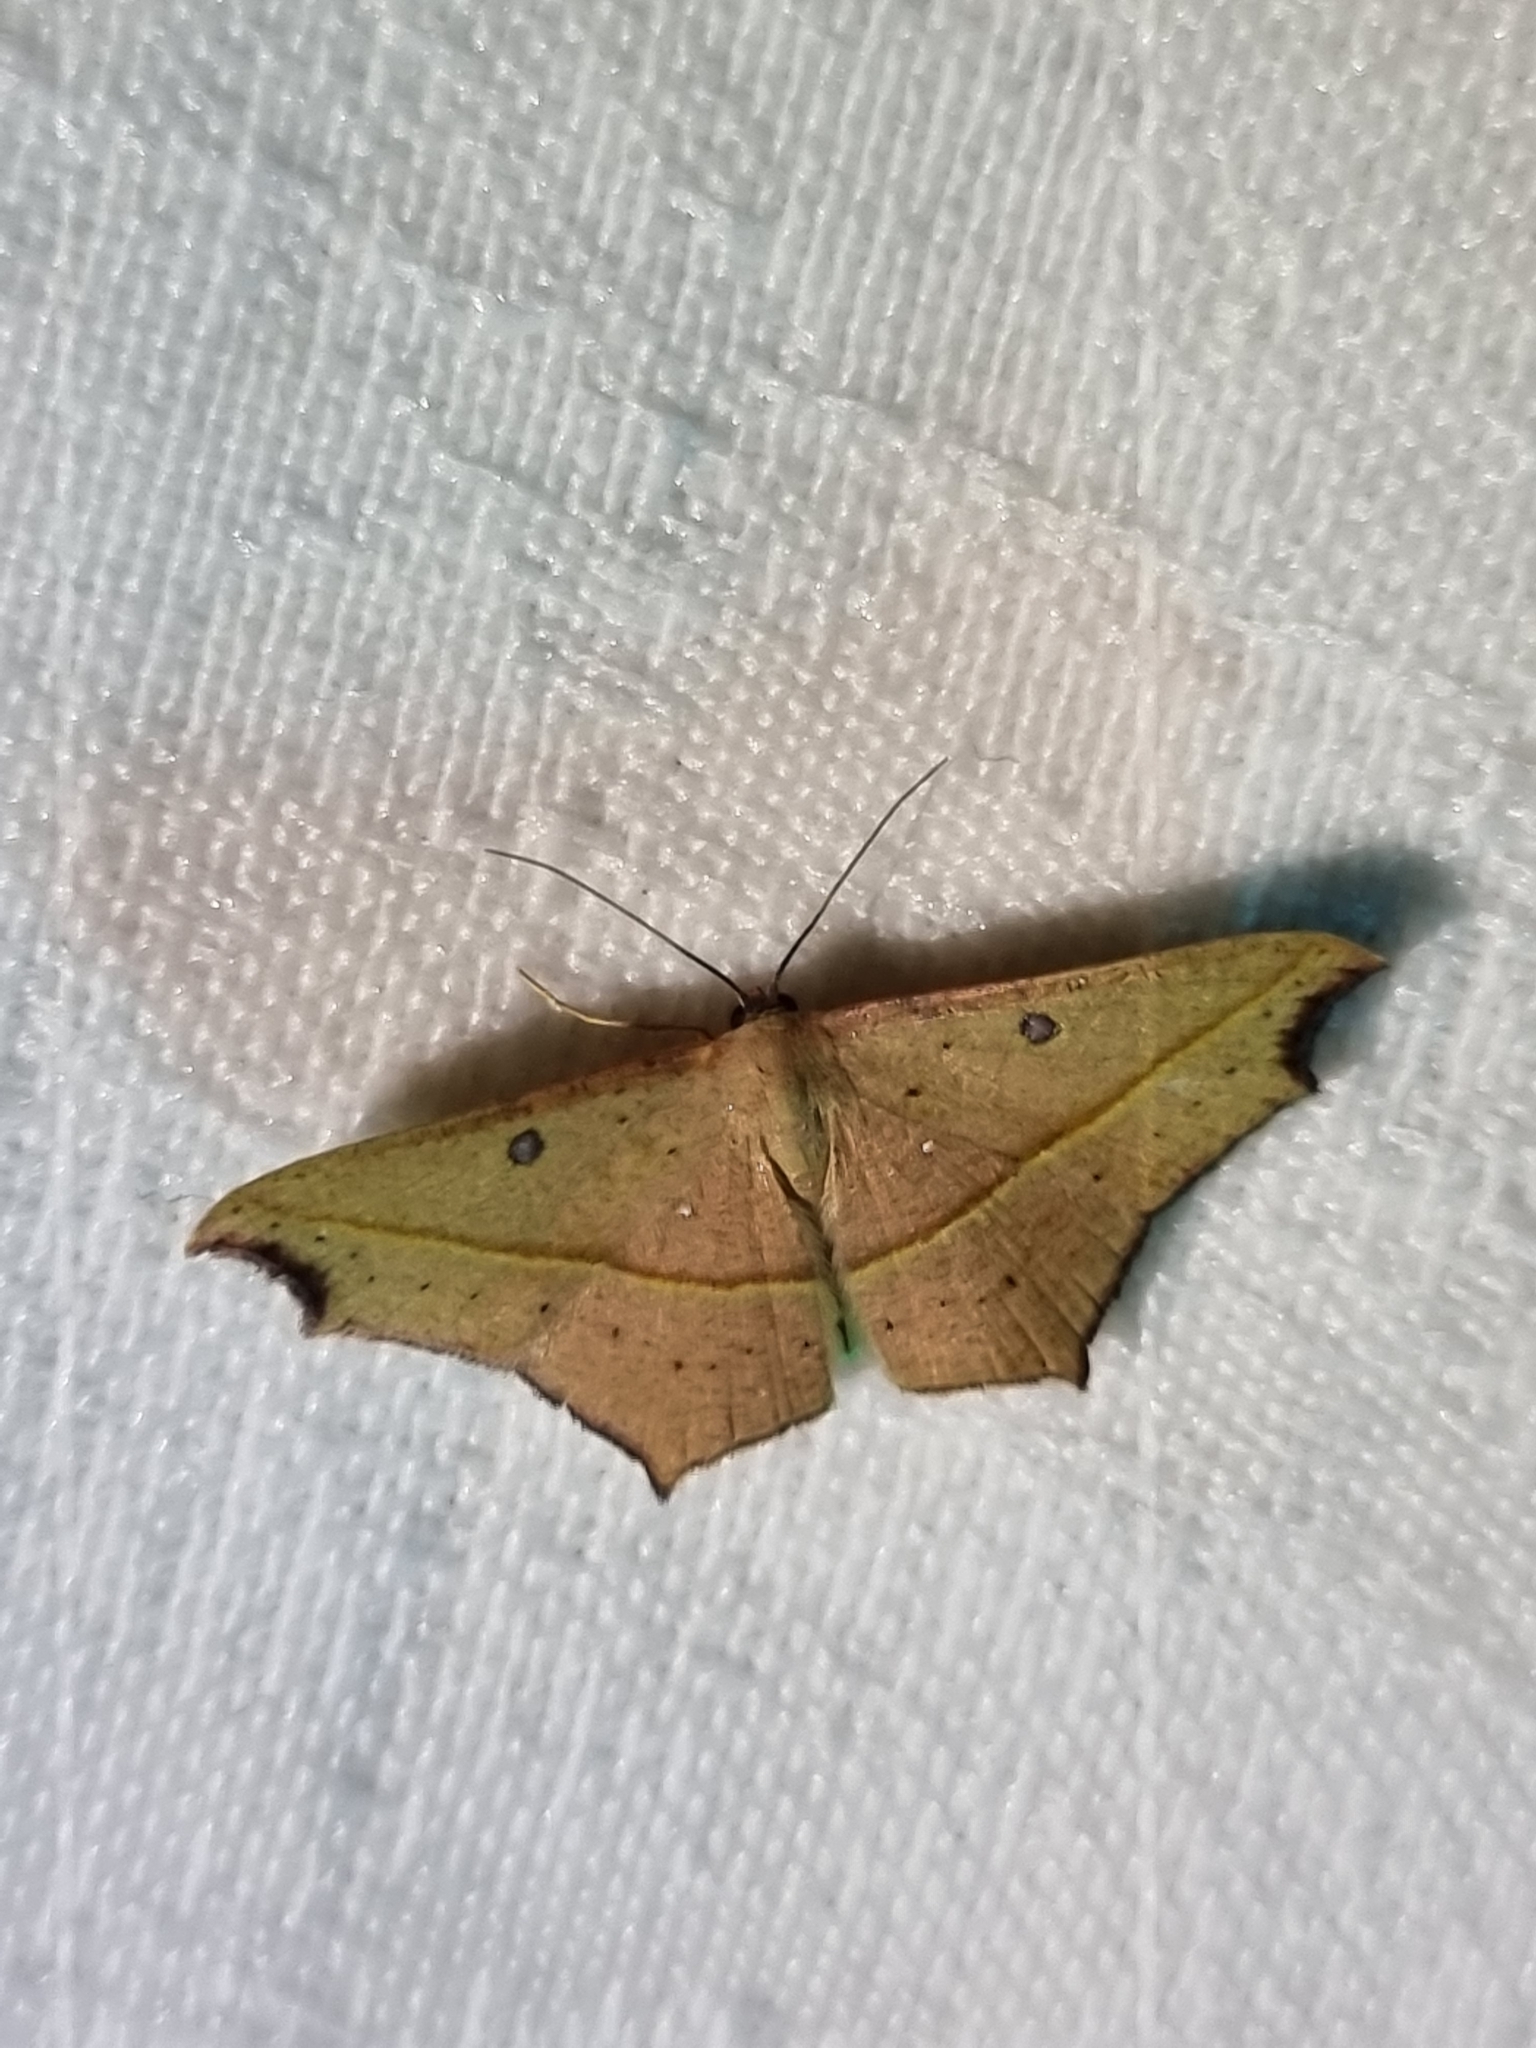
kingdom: Animalia
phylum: Arthropoda
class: Insecta
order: Lepidoptera
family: Geometridae
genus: Traminda
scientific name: Traminda aventiaria
